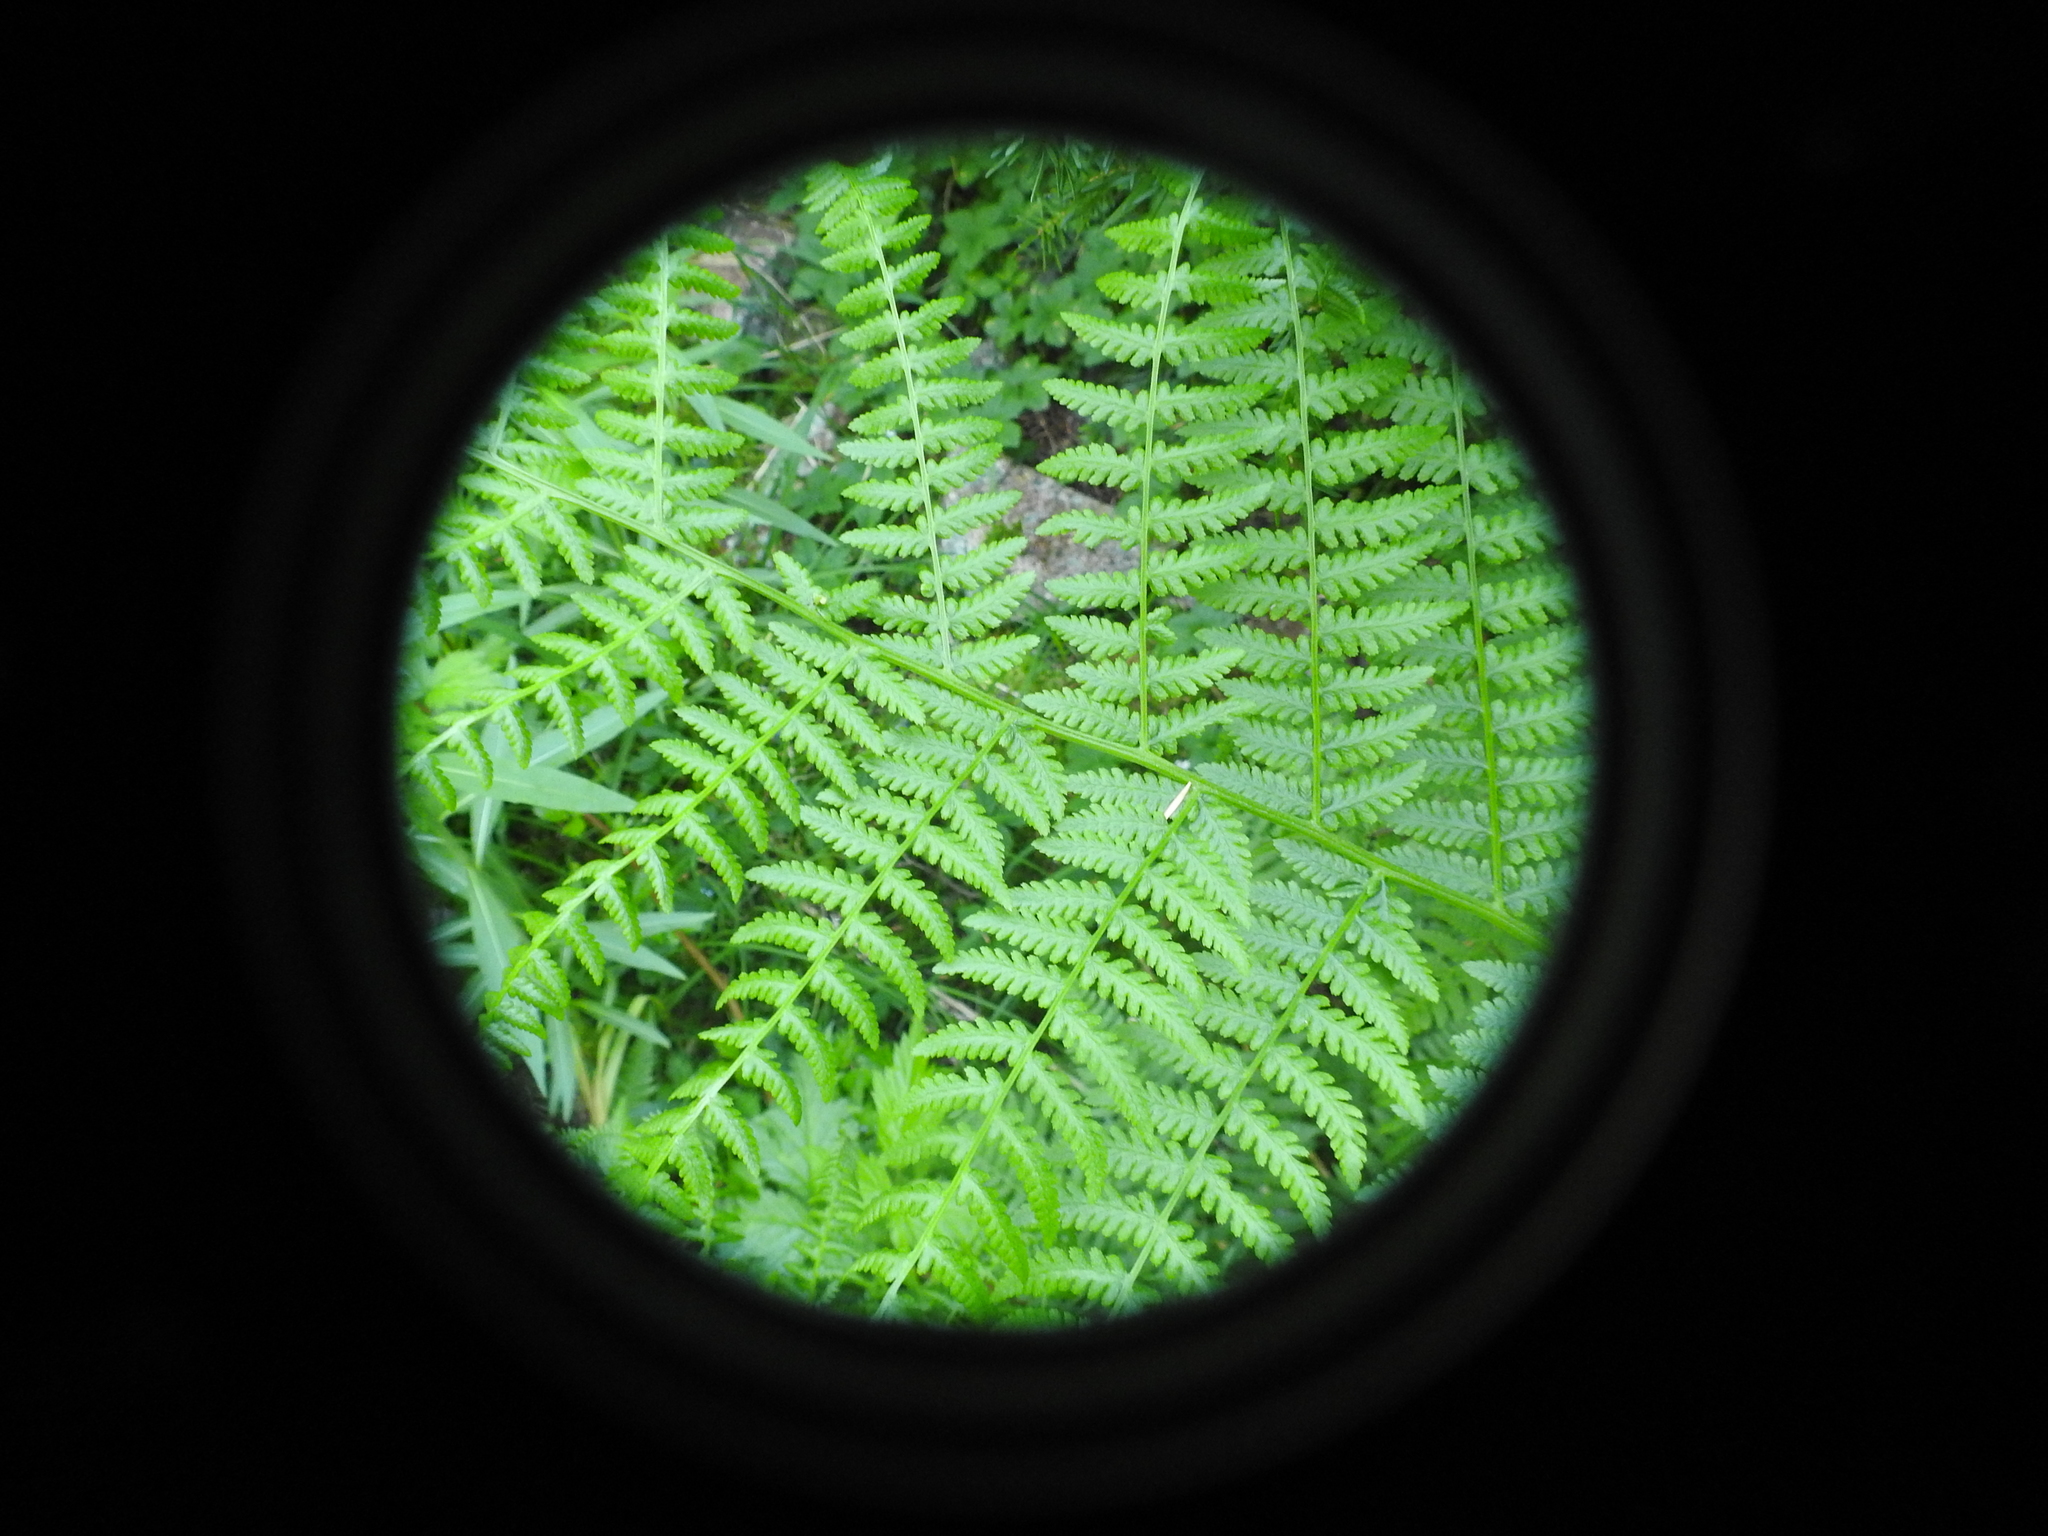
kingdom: Plantae
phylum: Tracheophyta
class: Polypodiopsida
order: Polypodiales
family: Athyriaceae
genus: Athyrium
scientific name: Athyrium filix-femina
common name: Lady fern
